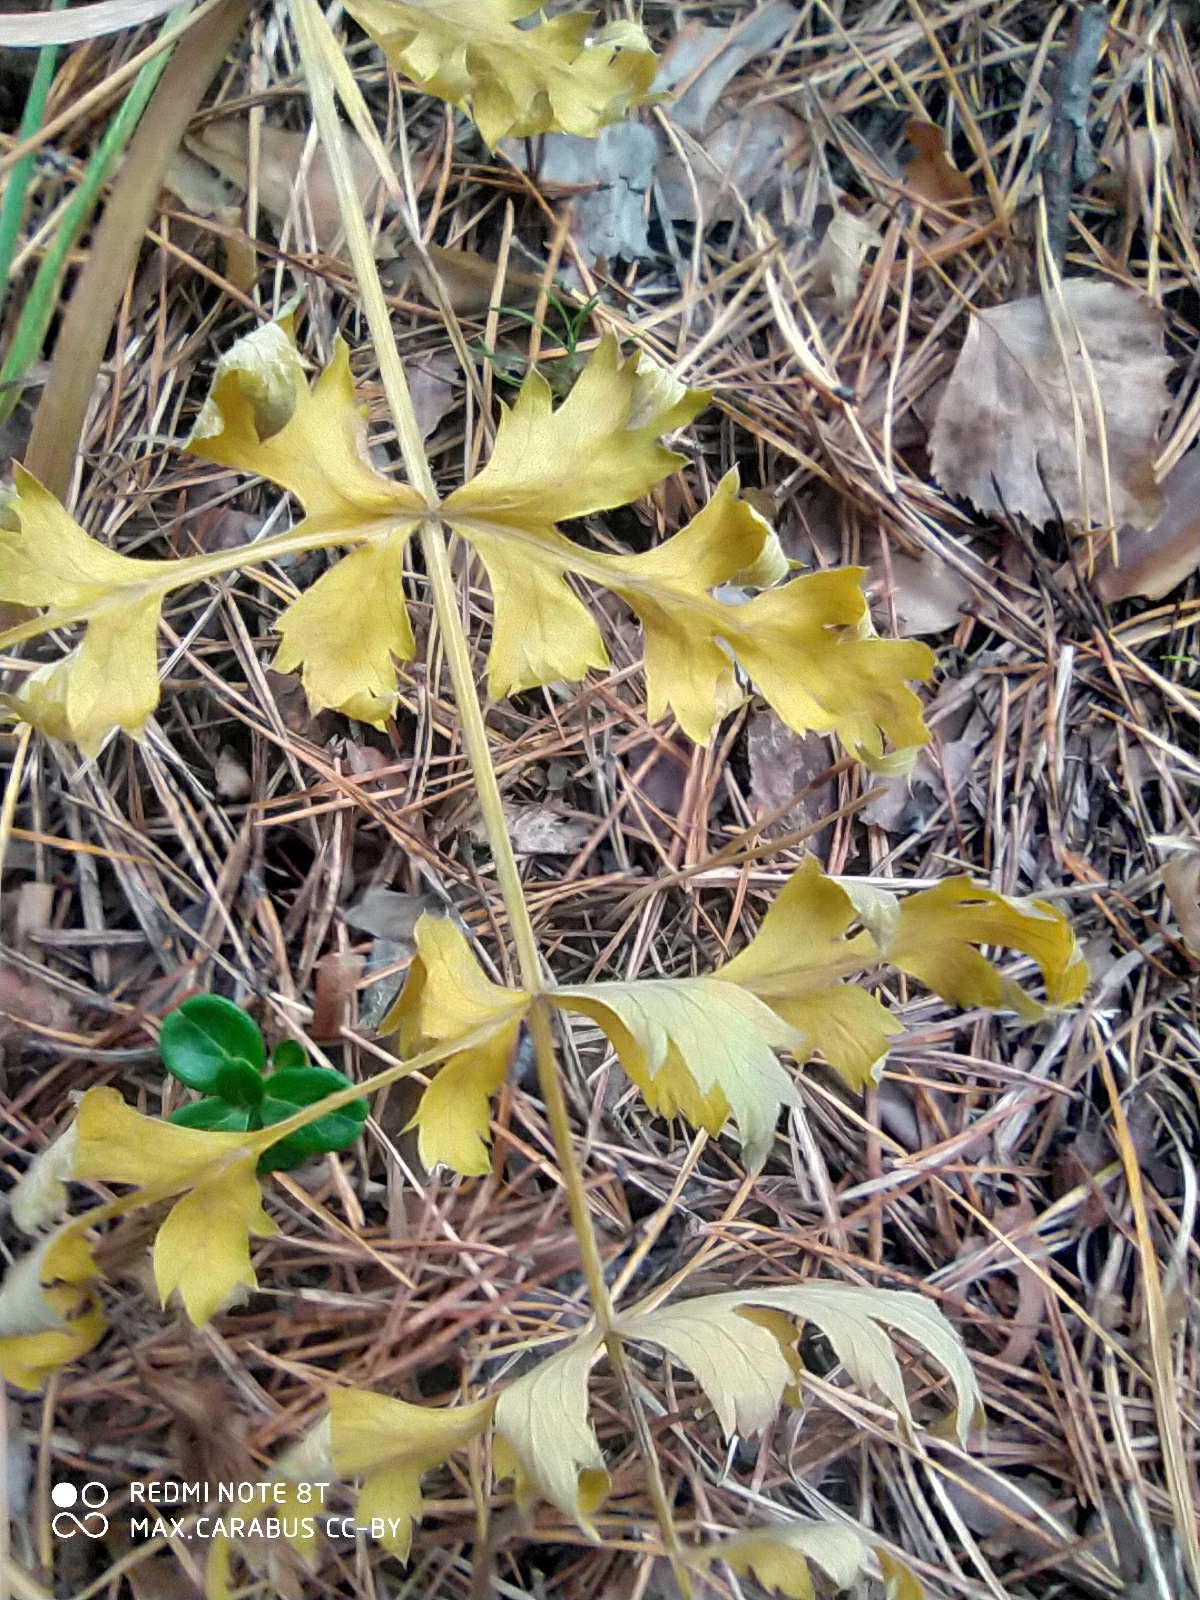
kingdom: Plantae
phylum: Tracheophyta
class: Magnoliopsida
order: Apiales
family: Apiaceae
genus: Seseli
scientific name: Seseli libanotis
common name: Mooncarrot
